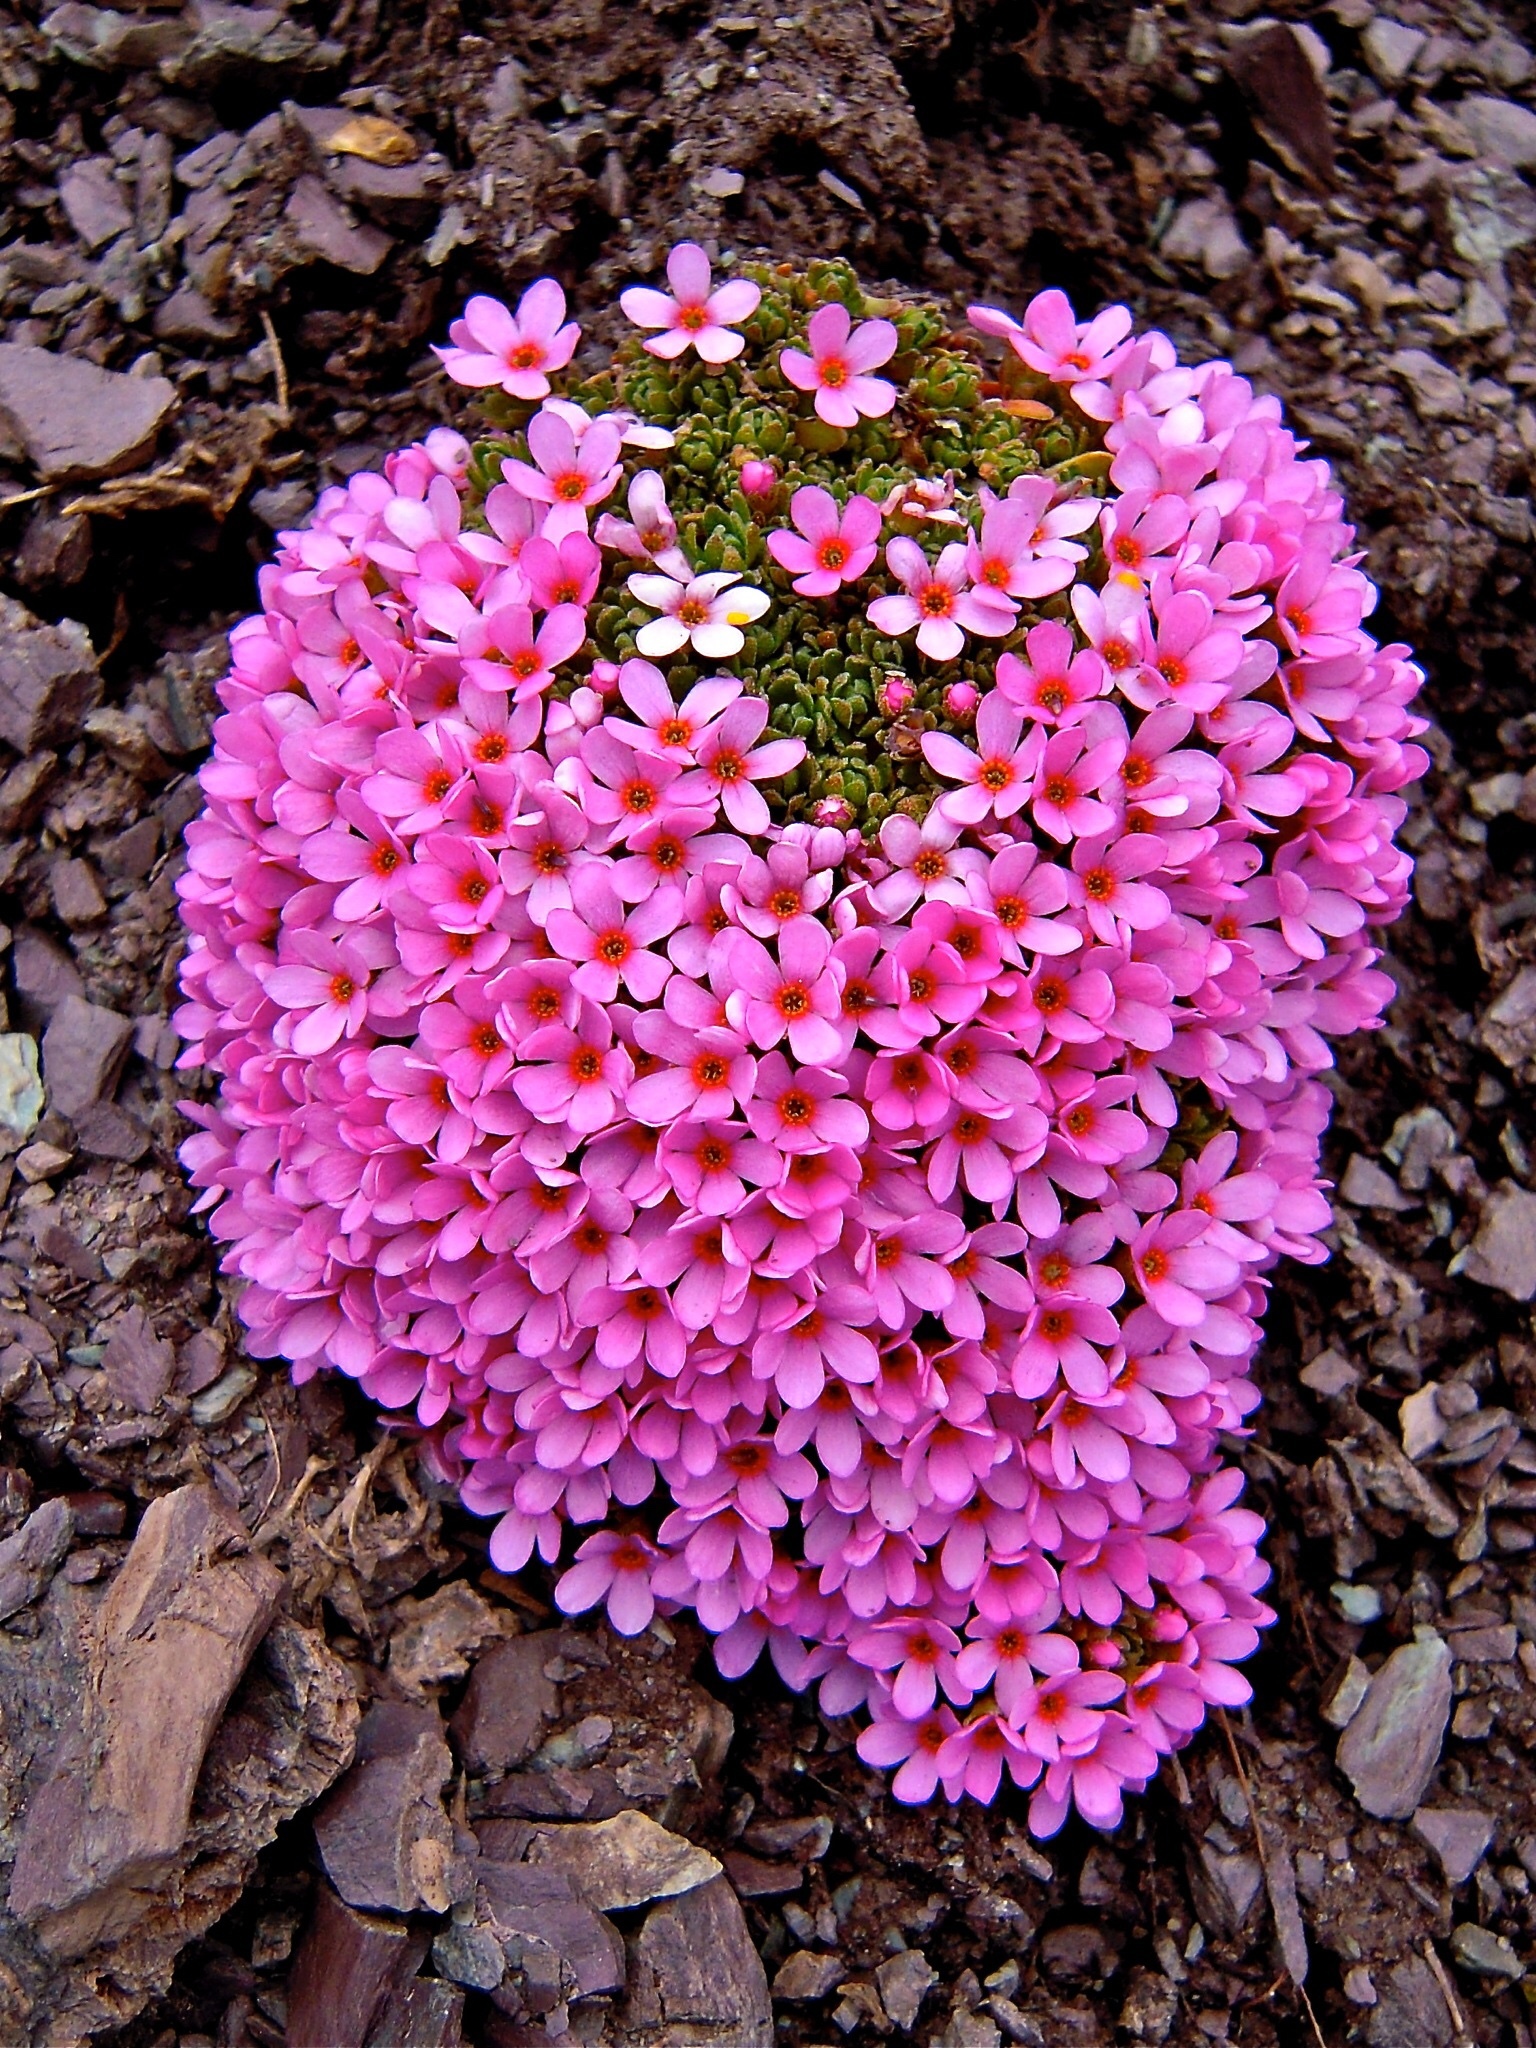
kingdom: Plantae
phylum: Tracheophyta
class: Magnoliopsida
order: Ericales
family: Primulaceae
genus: Androsace
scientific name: Androsace alpina
